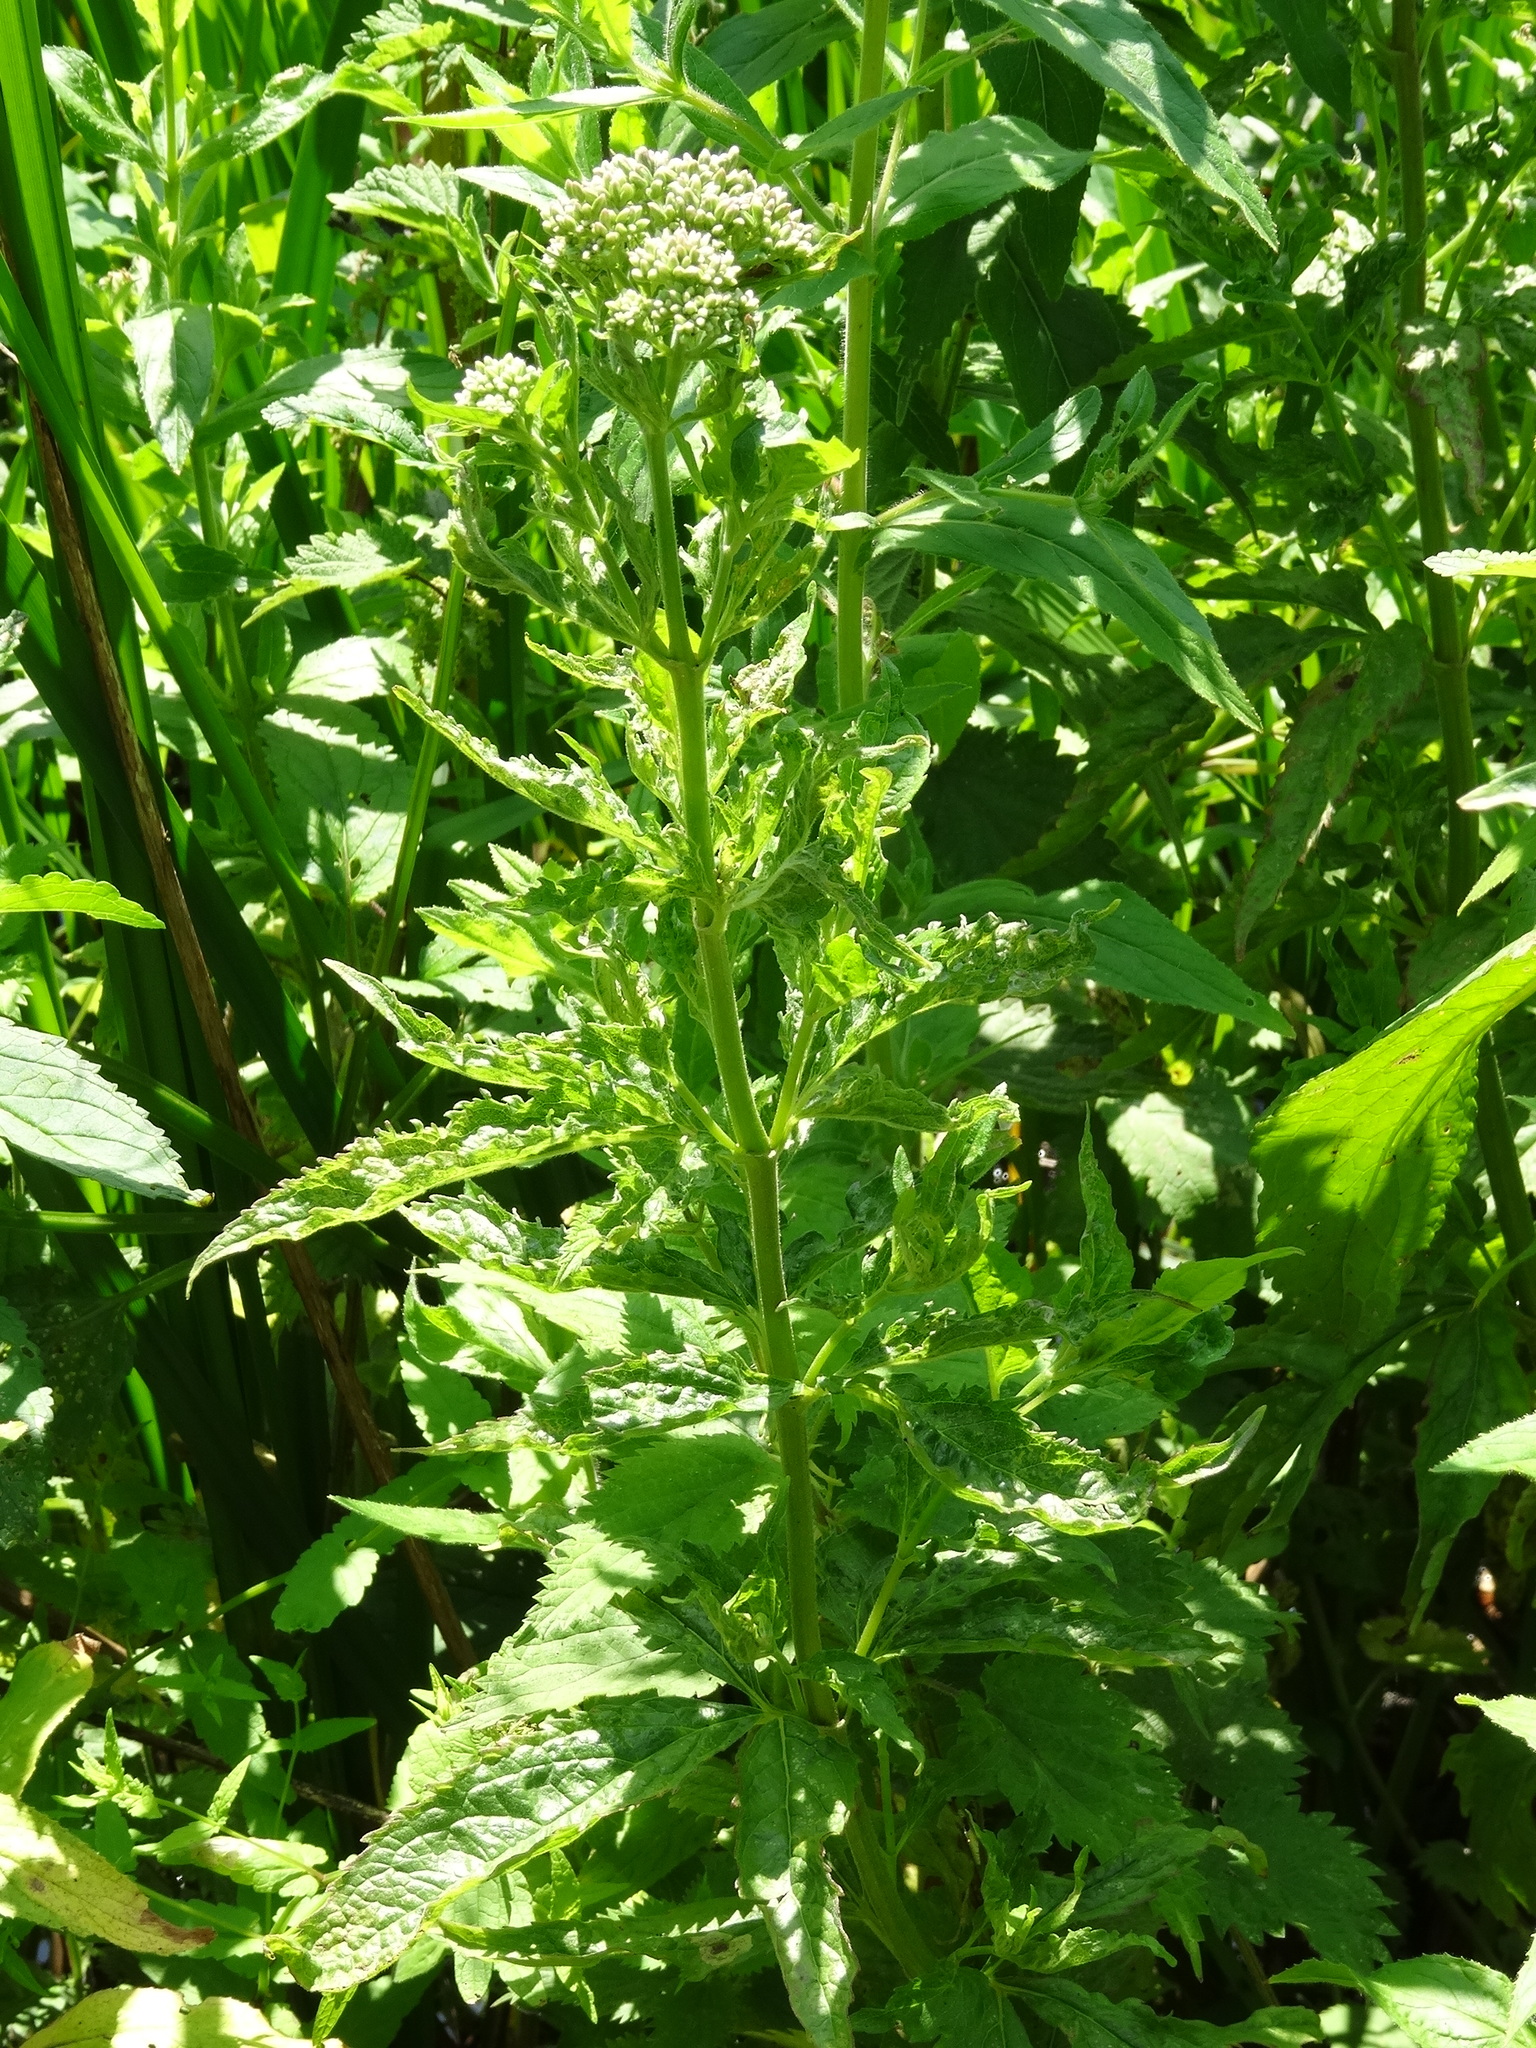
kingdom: Plantae
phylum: Tracheophyta
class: Magnoliopsida
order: Asterales
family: Asteraceae
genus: Eupatorium
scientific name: Eupatorium cannabinum
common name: Hemp-agrimony
